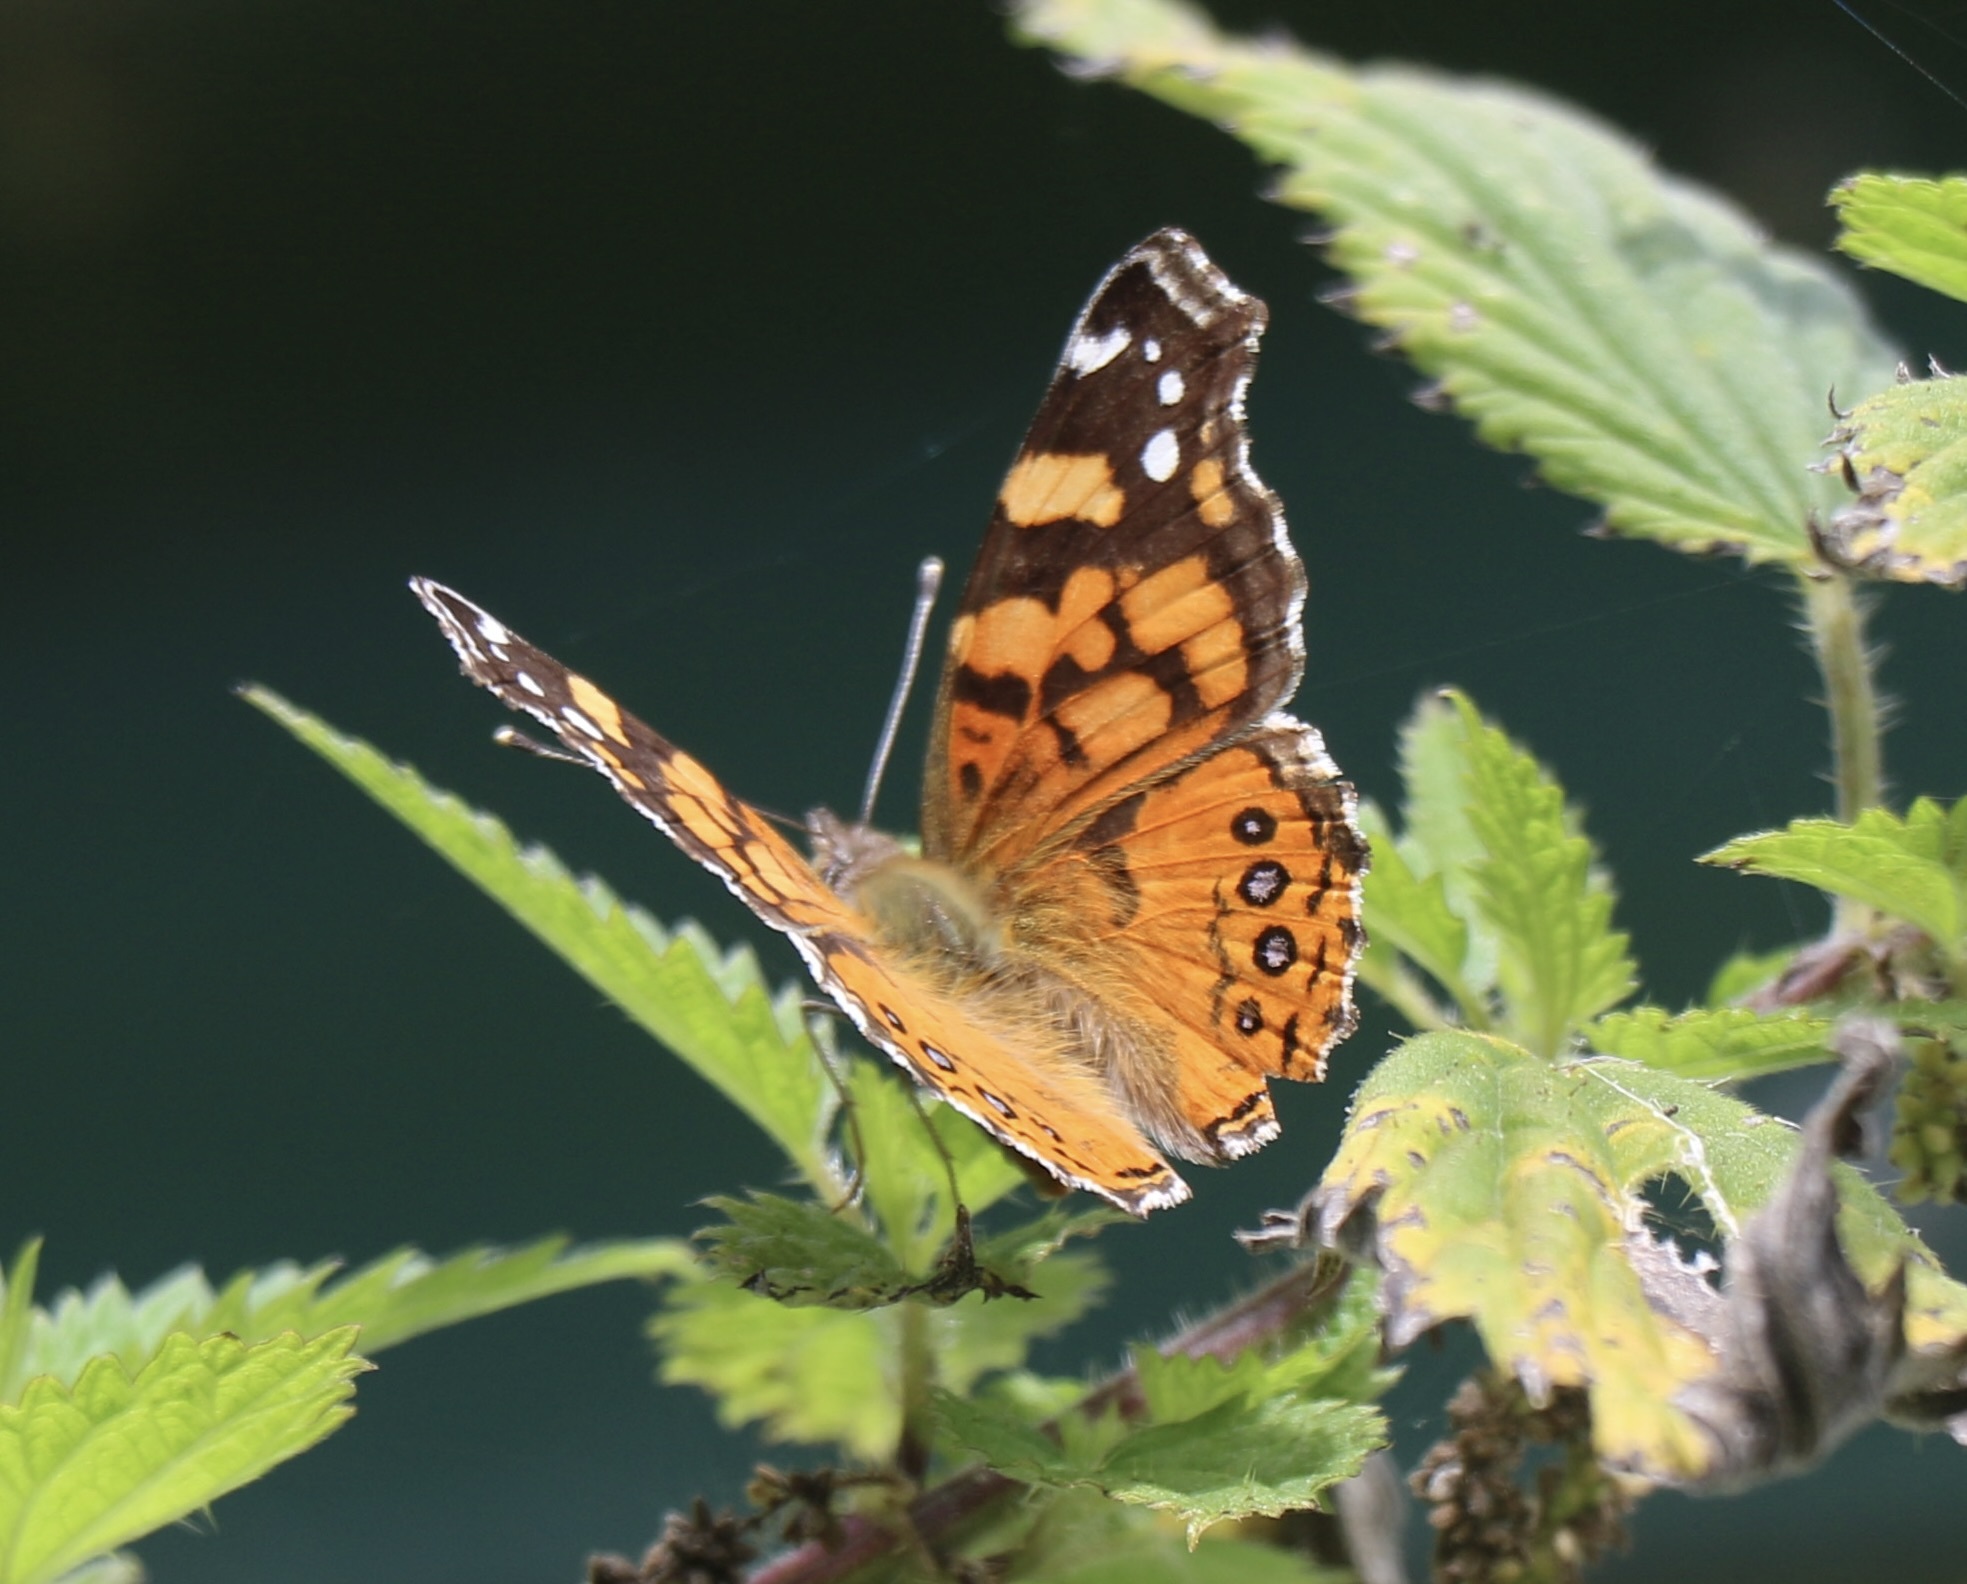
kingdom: Animalia
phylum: Arthropoda
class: Insecta
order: Lepidoptera
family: Nymphalidae
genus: Vanessa
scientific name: Vanessa annabella
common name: West coast lady
